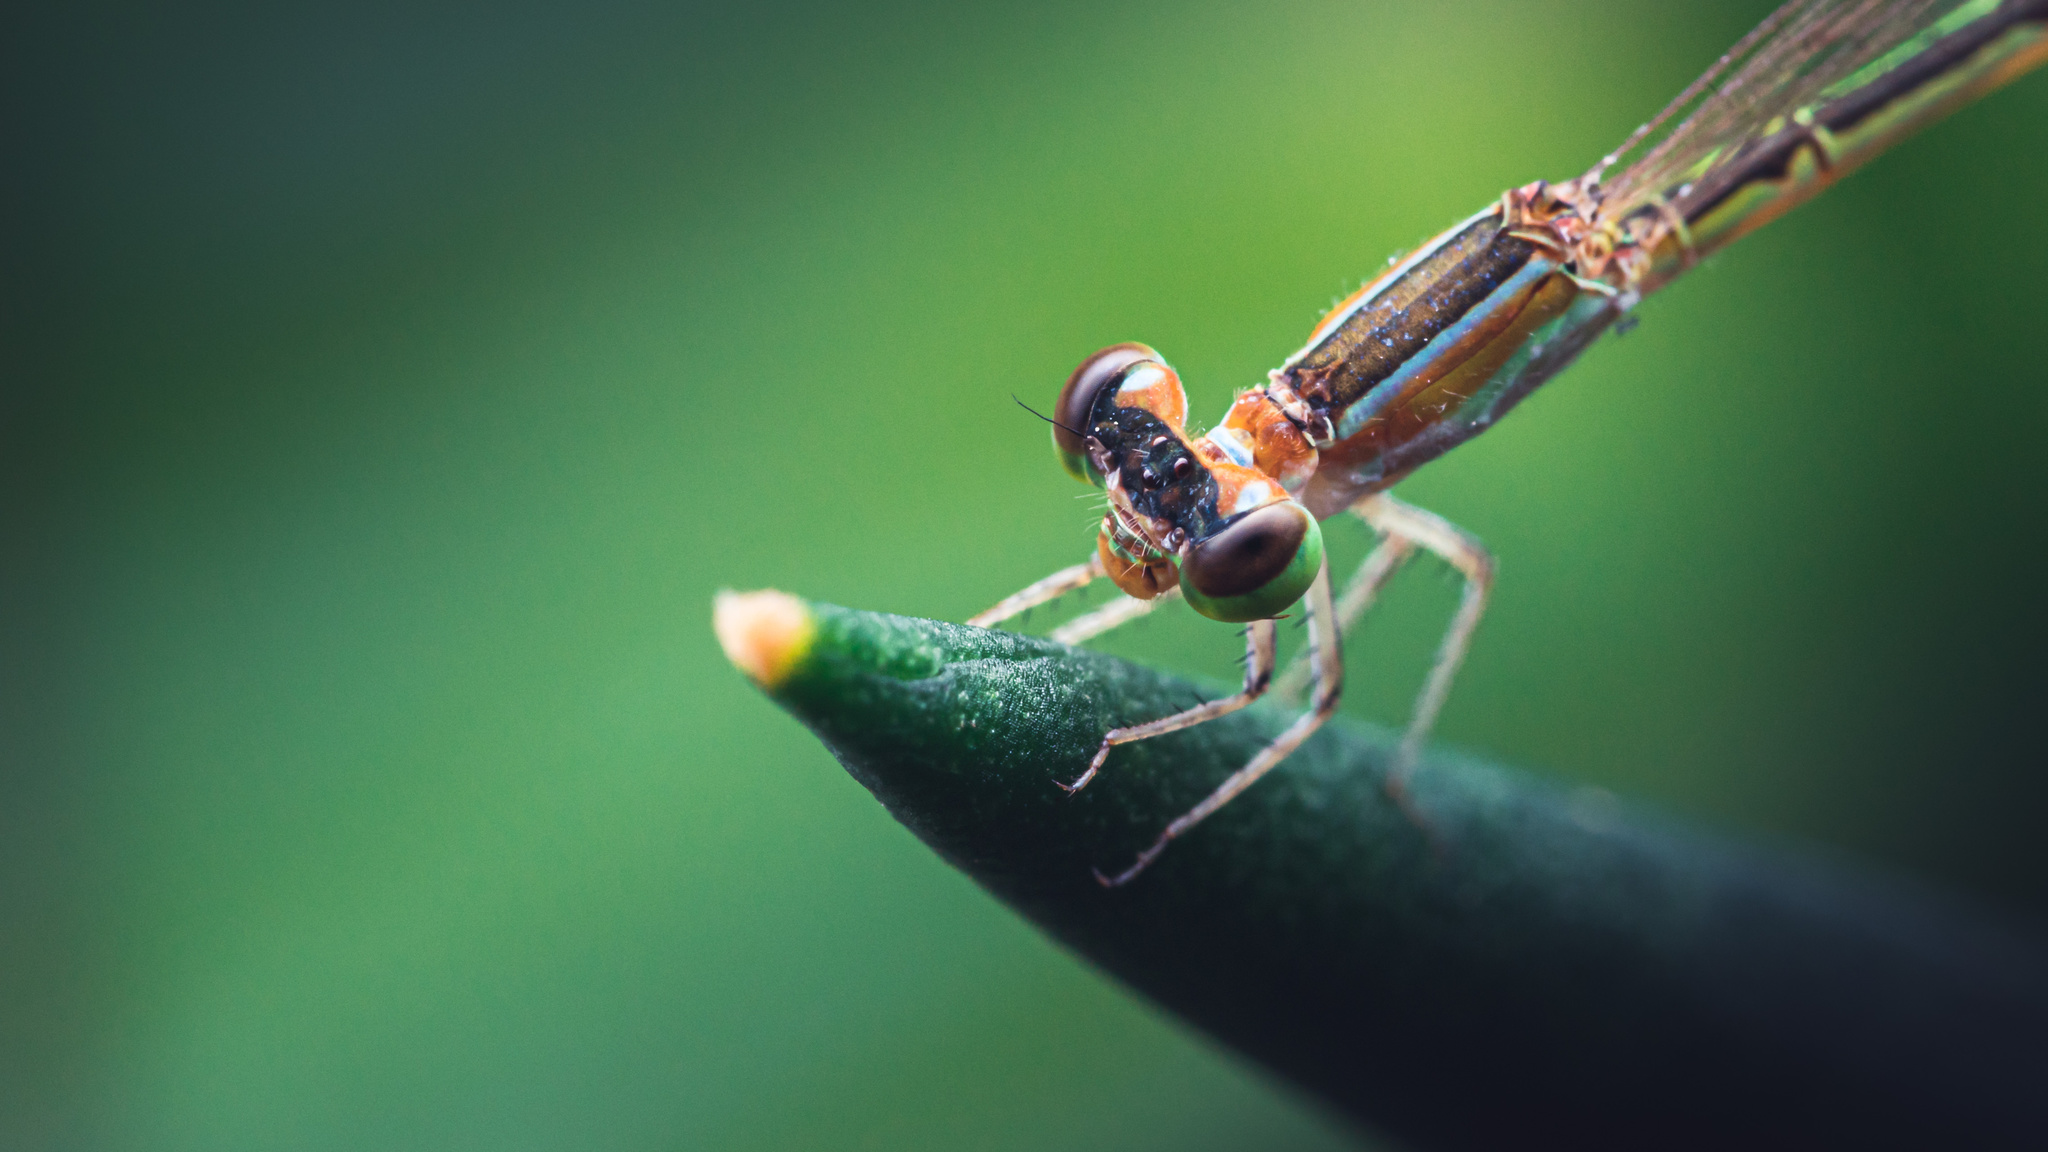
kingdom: Animalia
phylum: Arthropoda
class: Insecta
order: Odonata
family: Coenagrionidae
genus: Agriocnemis
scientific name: Agriocnemis pygmaea
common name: Pygmy wisp
